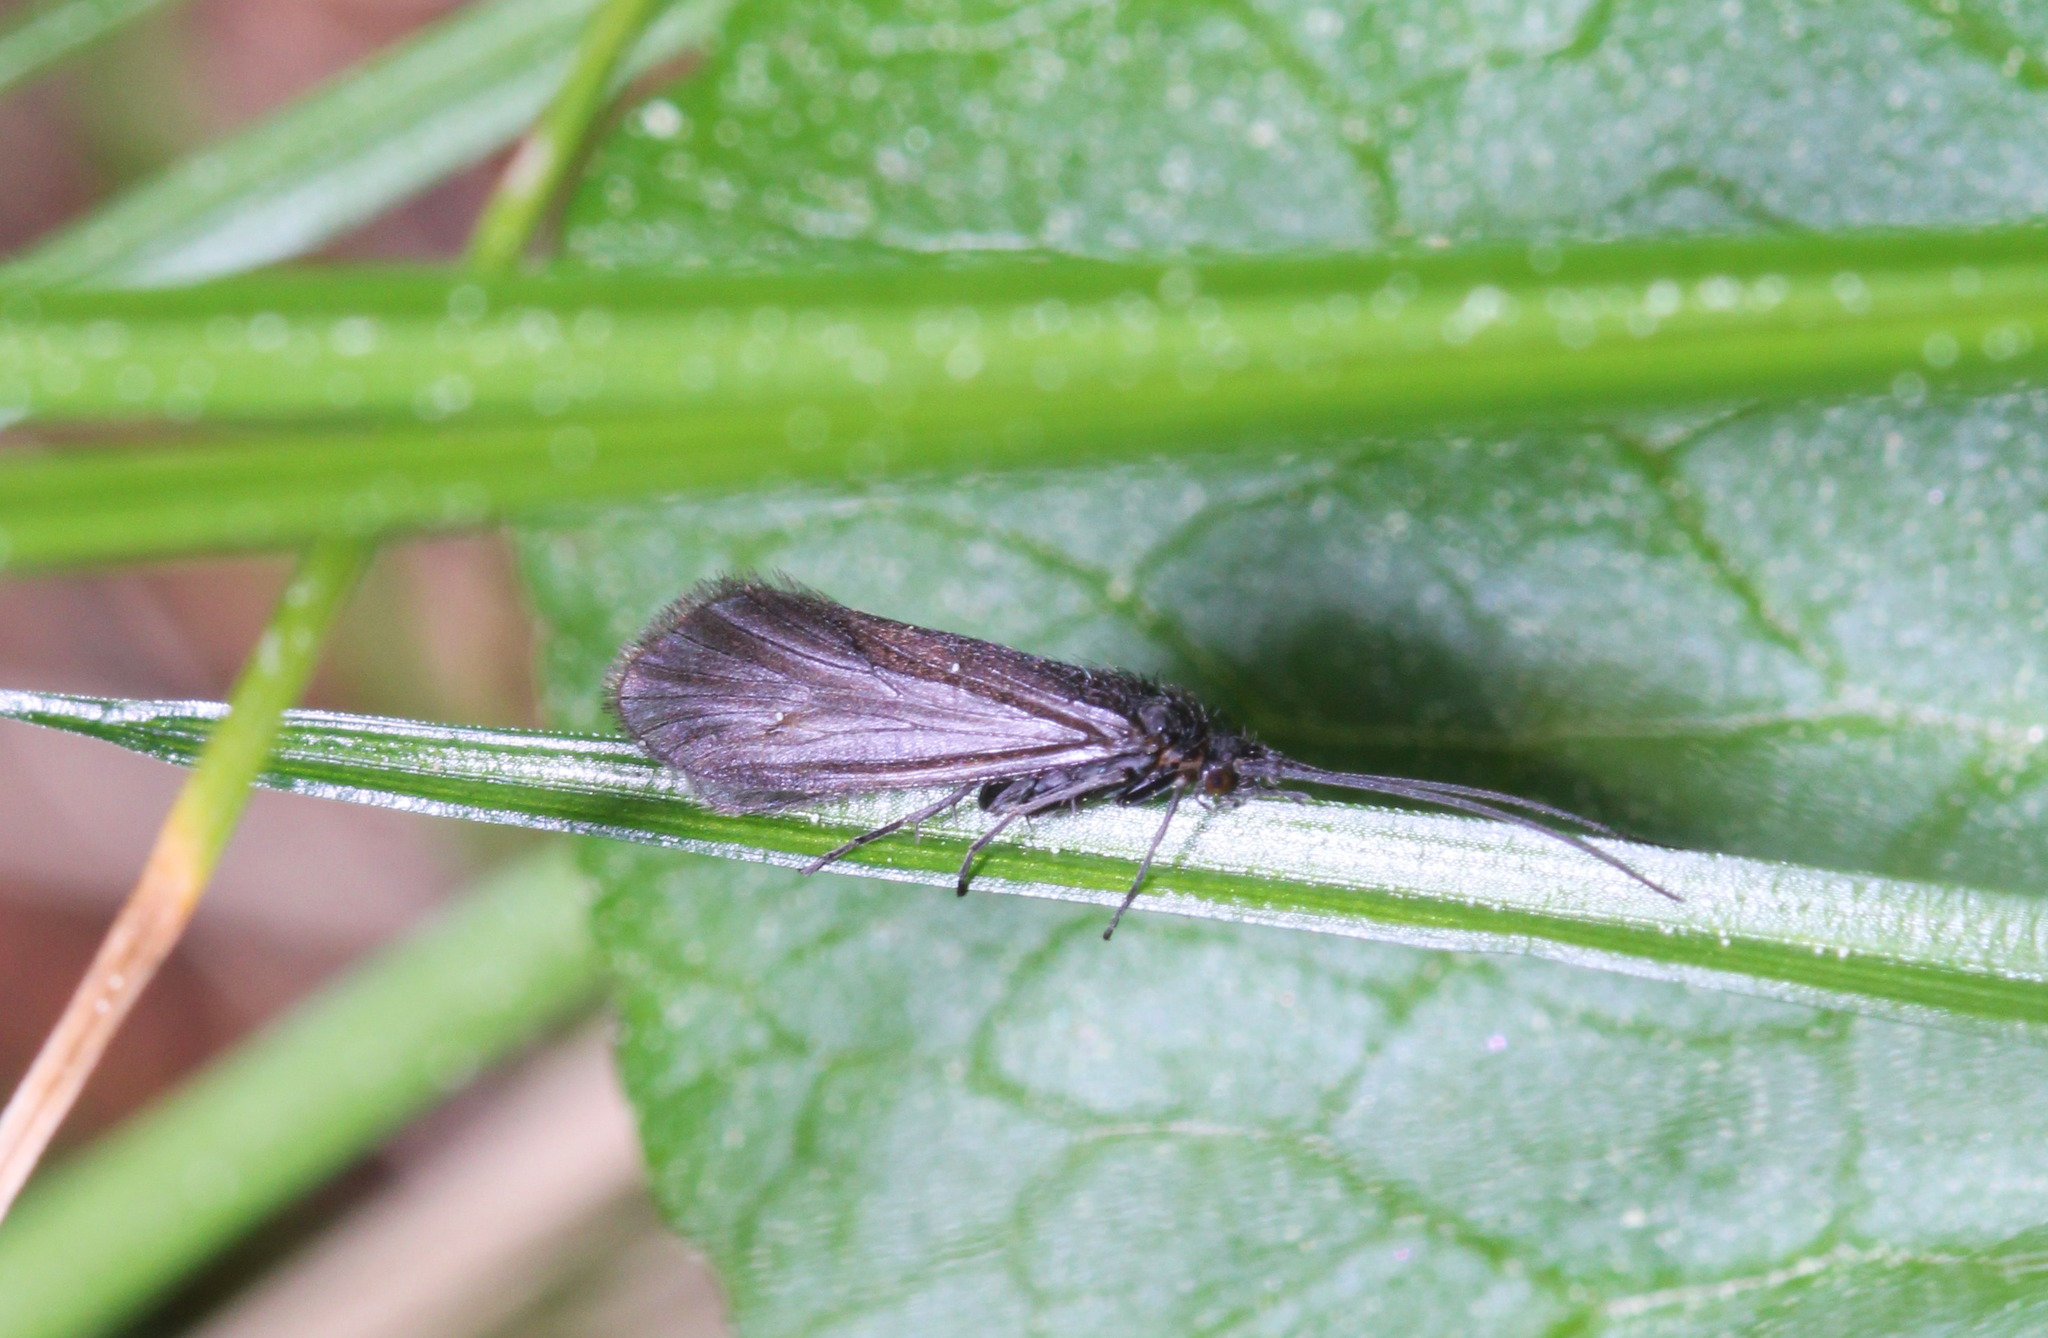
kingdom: Animalia
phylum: Arthropoda
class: Insecta
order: Trichoptera
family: Goeridae
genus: Lithax
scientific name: Lithax obscurus
